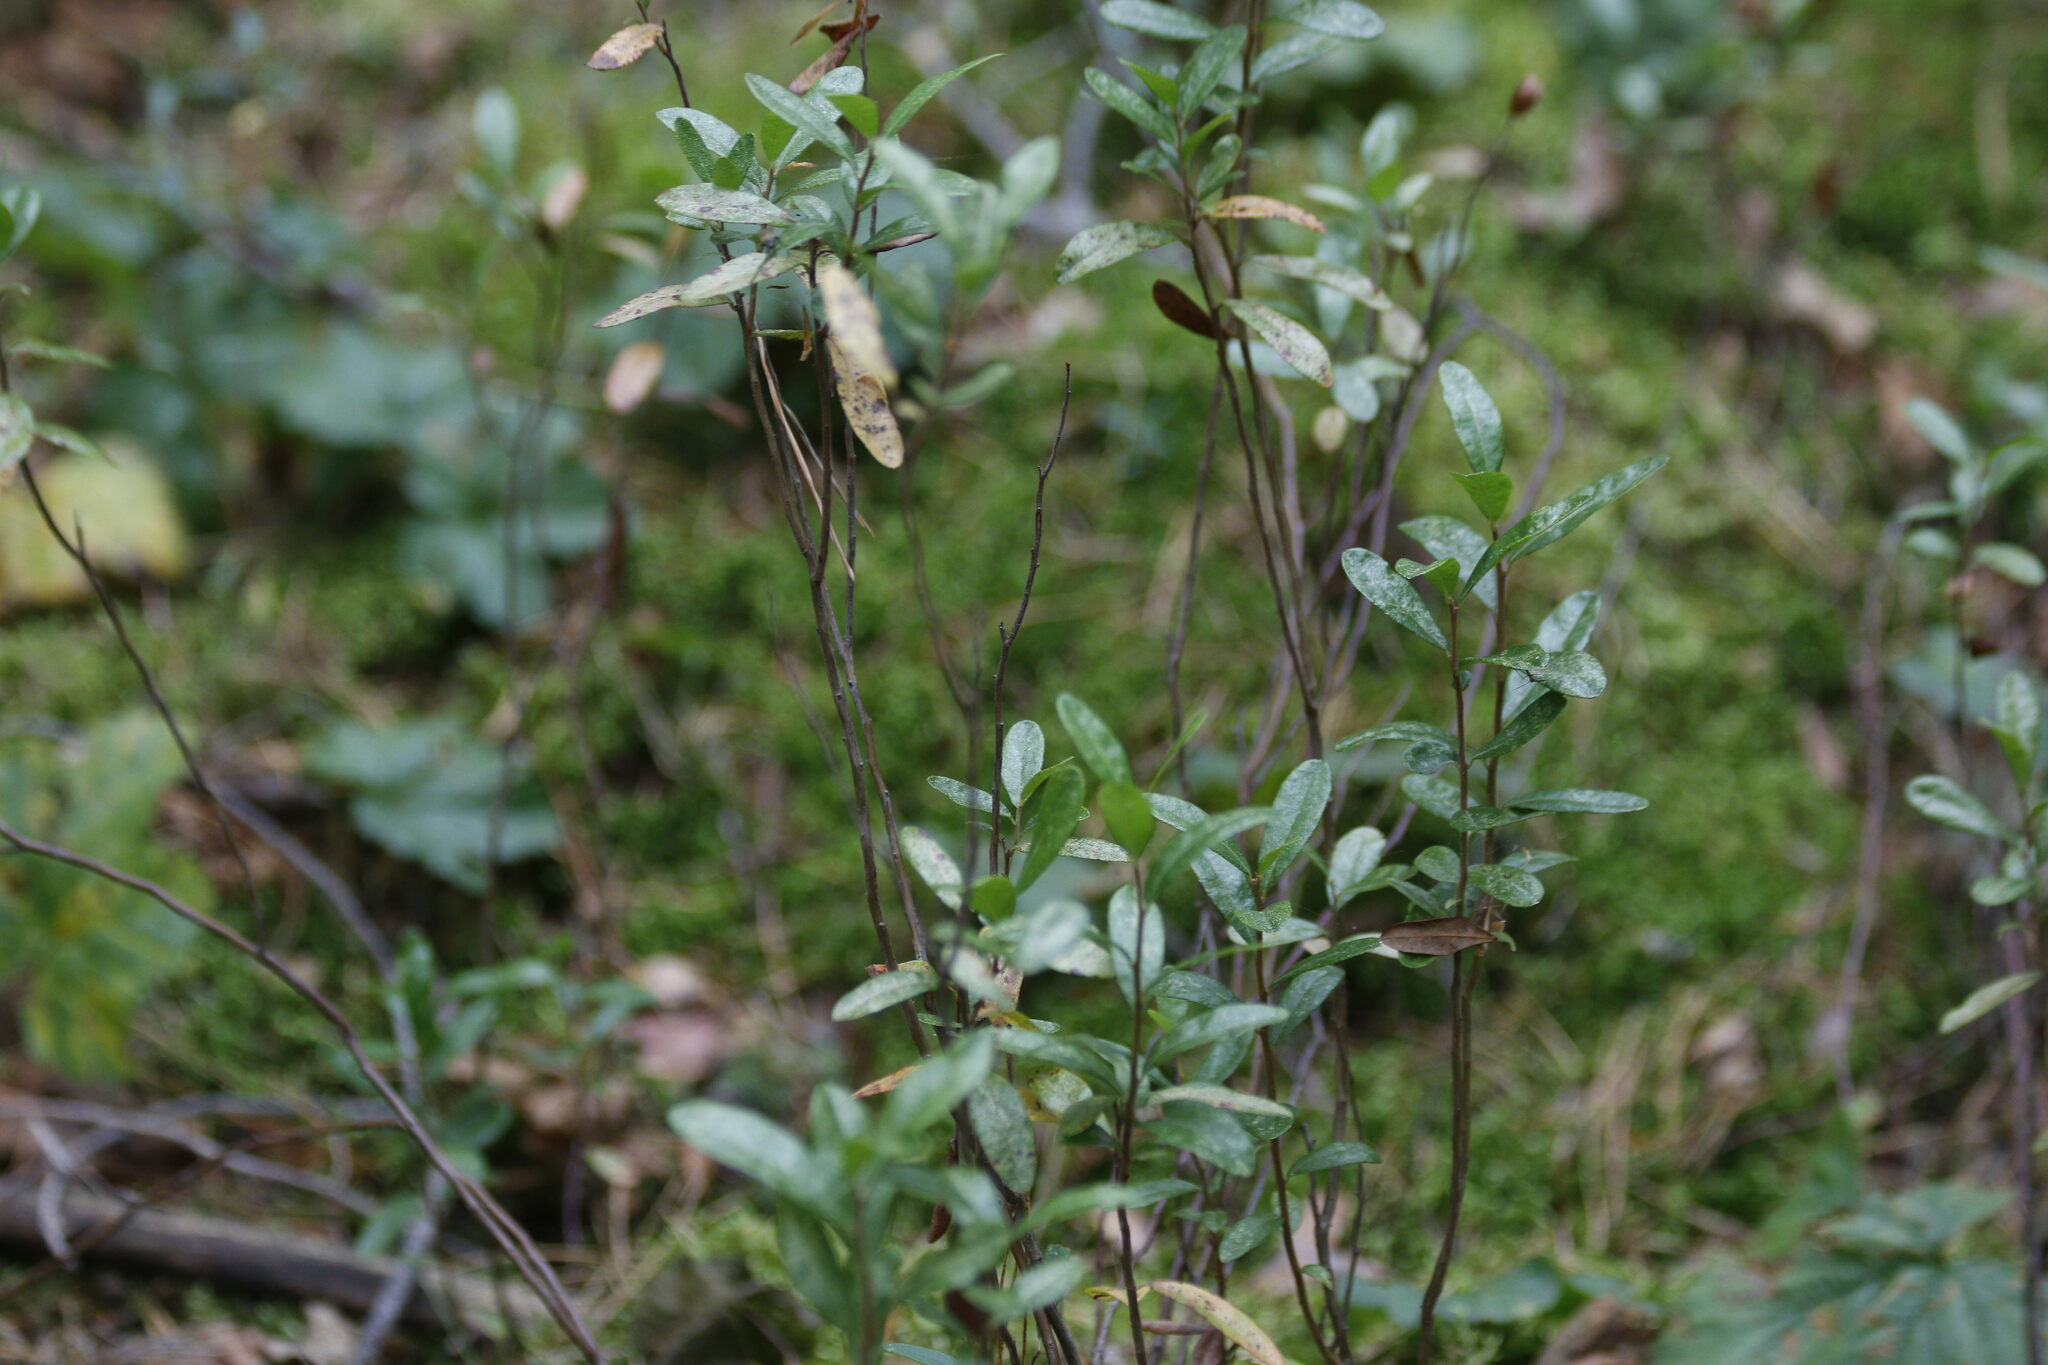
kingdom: Plantae
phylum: Tracheophyta
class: Magnoliopsida
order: Ericales
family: Ericaceae
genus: Chamaedaphne
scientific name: Chamaedaphne calyculata
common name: Leatherleaf
